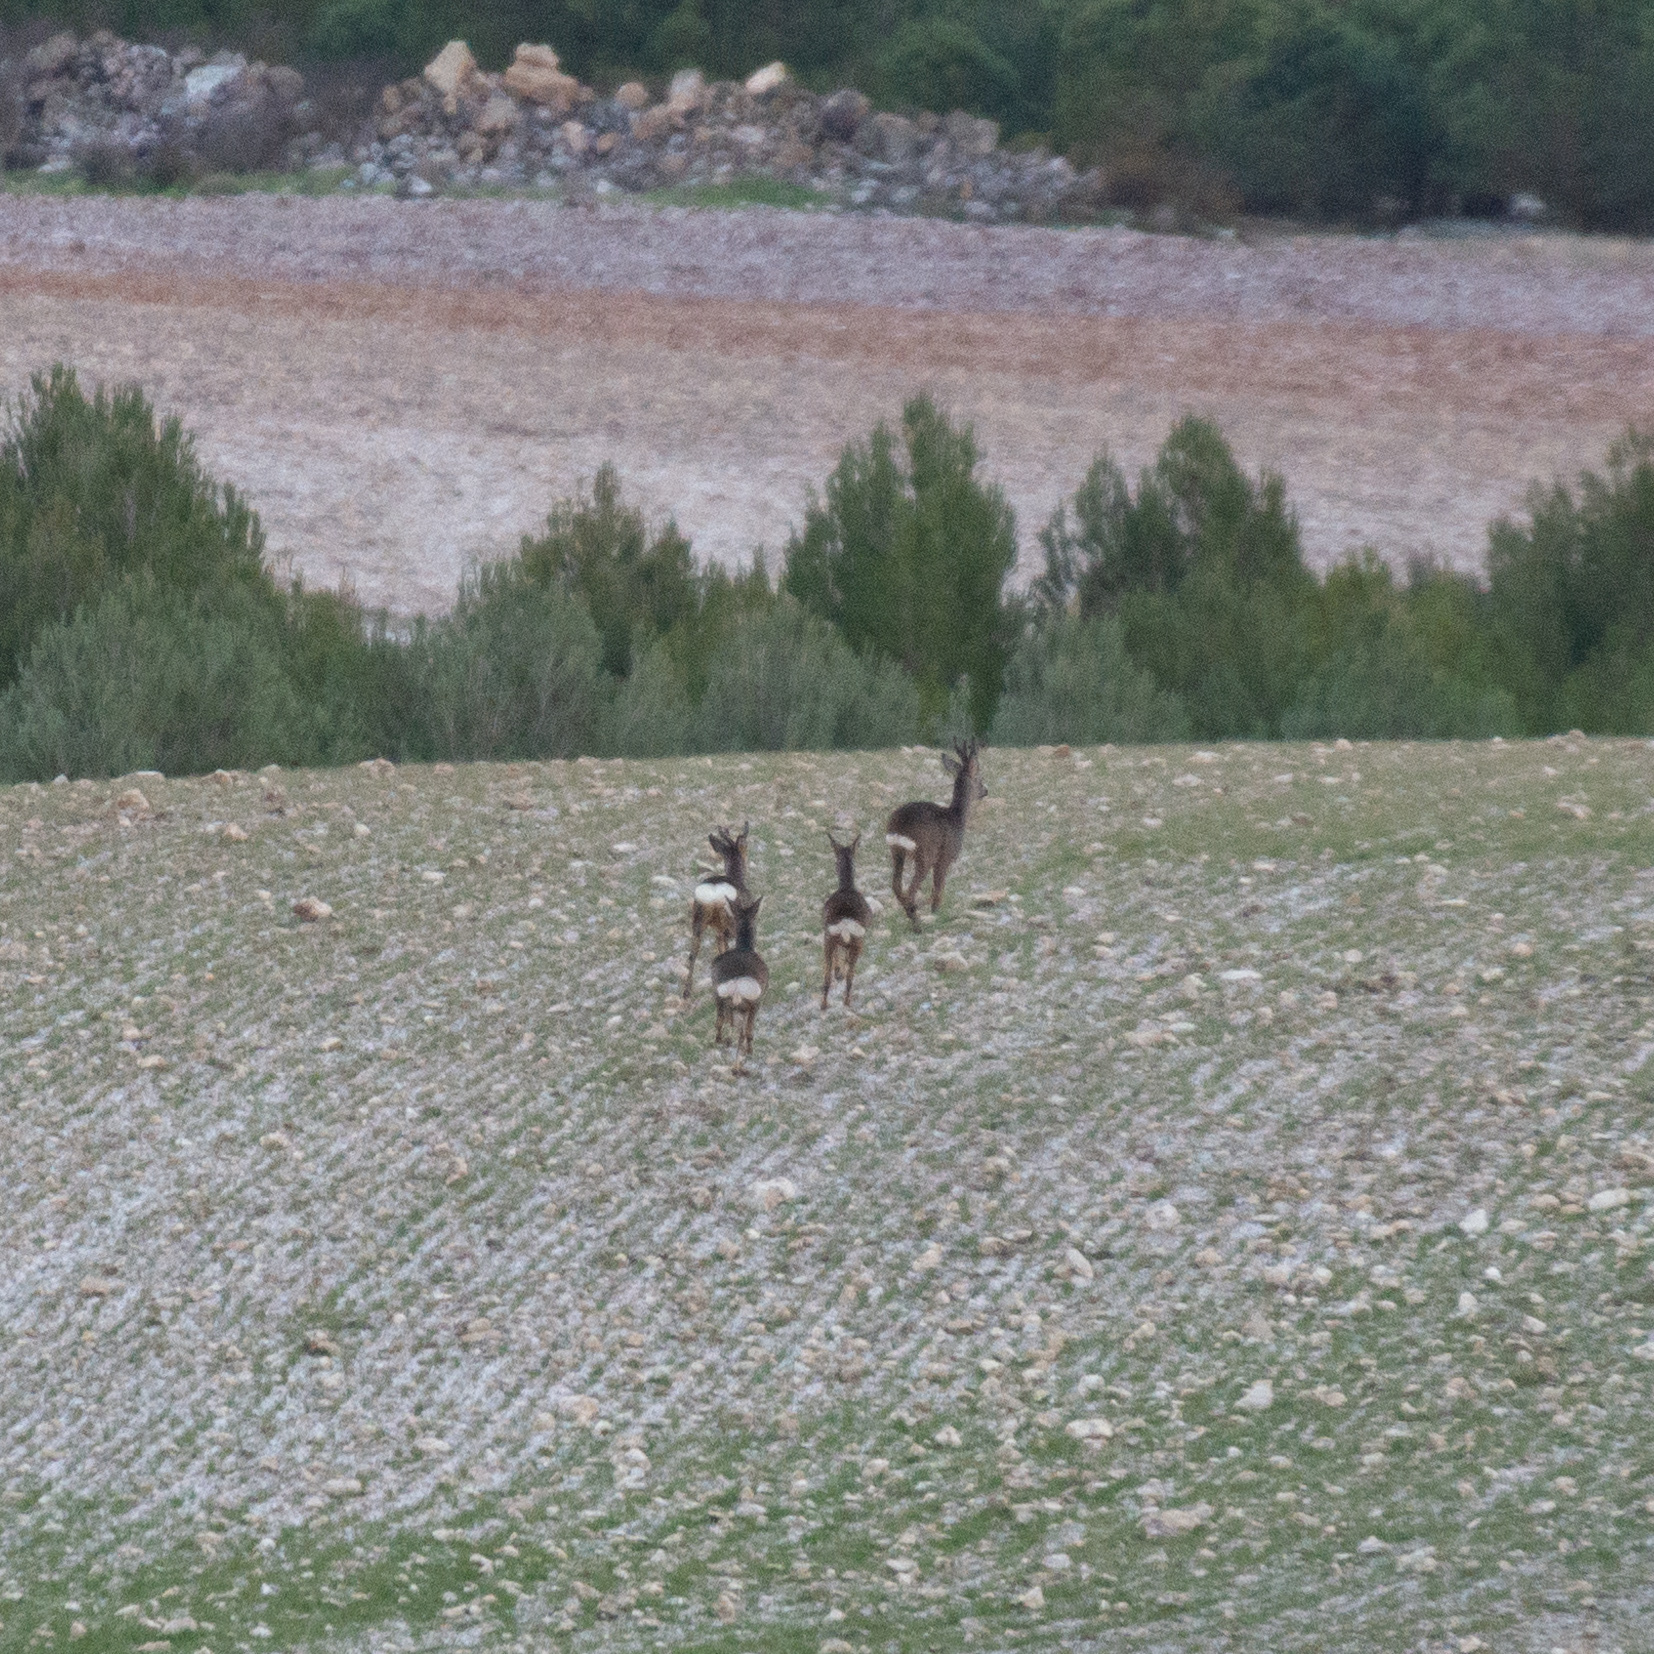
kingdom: Animalia
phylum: Chordata
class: Mammalia
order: Artiodactyla
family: Cervidae
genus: Capreolus
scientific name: Capreolus capreolus
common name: Western roe deer
